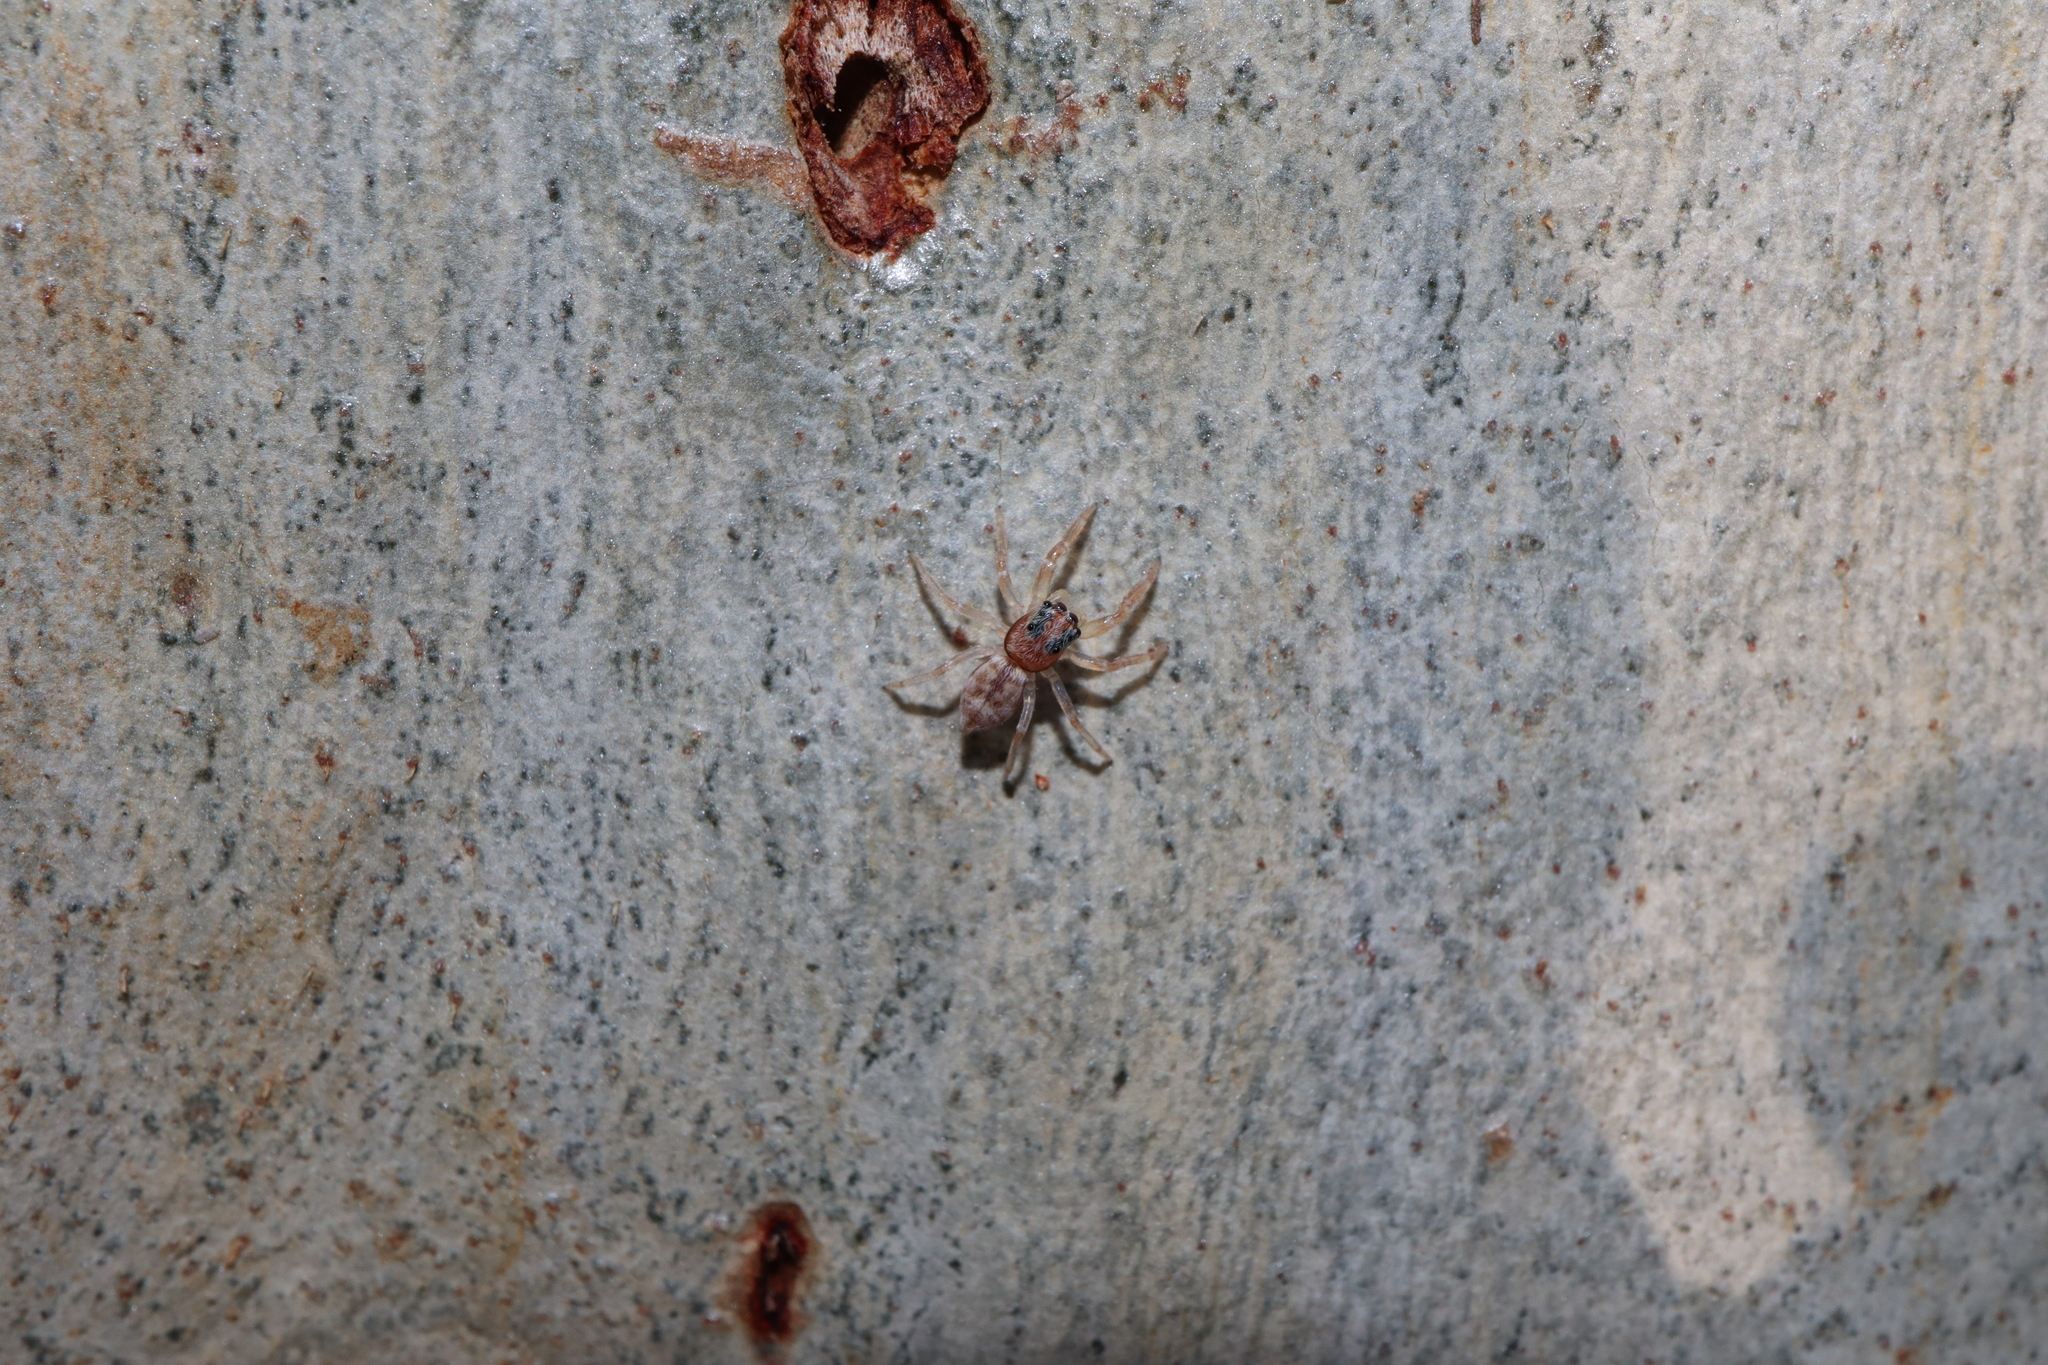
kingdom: Animalia
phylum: Arthropoda
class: Arachnida
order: Araneae
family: Salticidae
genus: Arasia
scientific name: Arasia mollicoma
